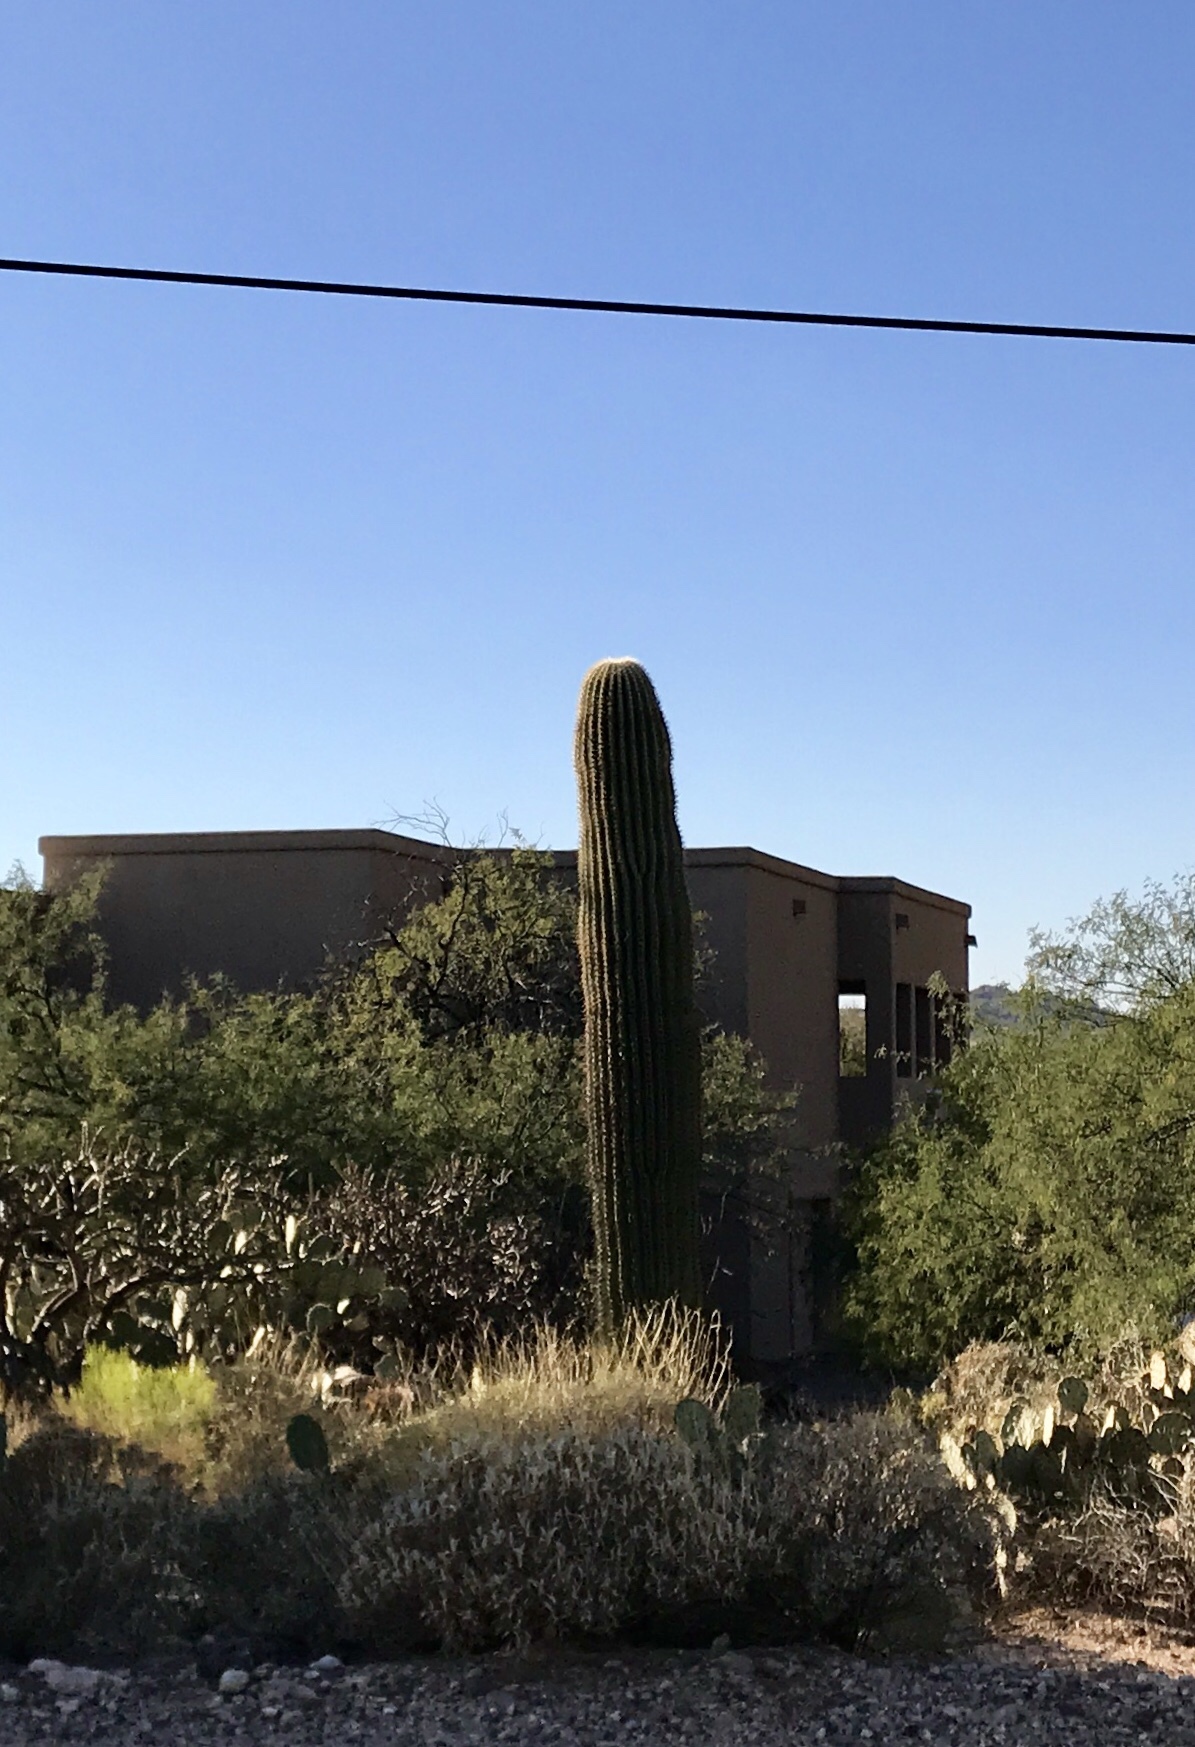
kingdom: Plantae
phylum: Tracheophyta
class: Magnoliopsida
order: Caryophyllales
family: Cactaceae
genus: Carnegiea
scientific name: Carnegiea gigantea
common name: Saguaro
